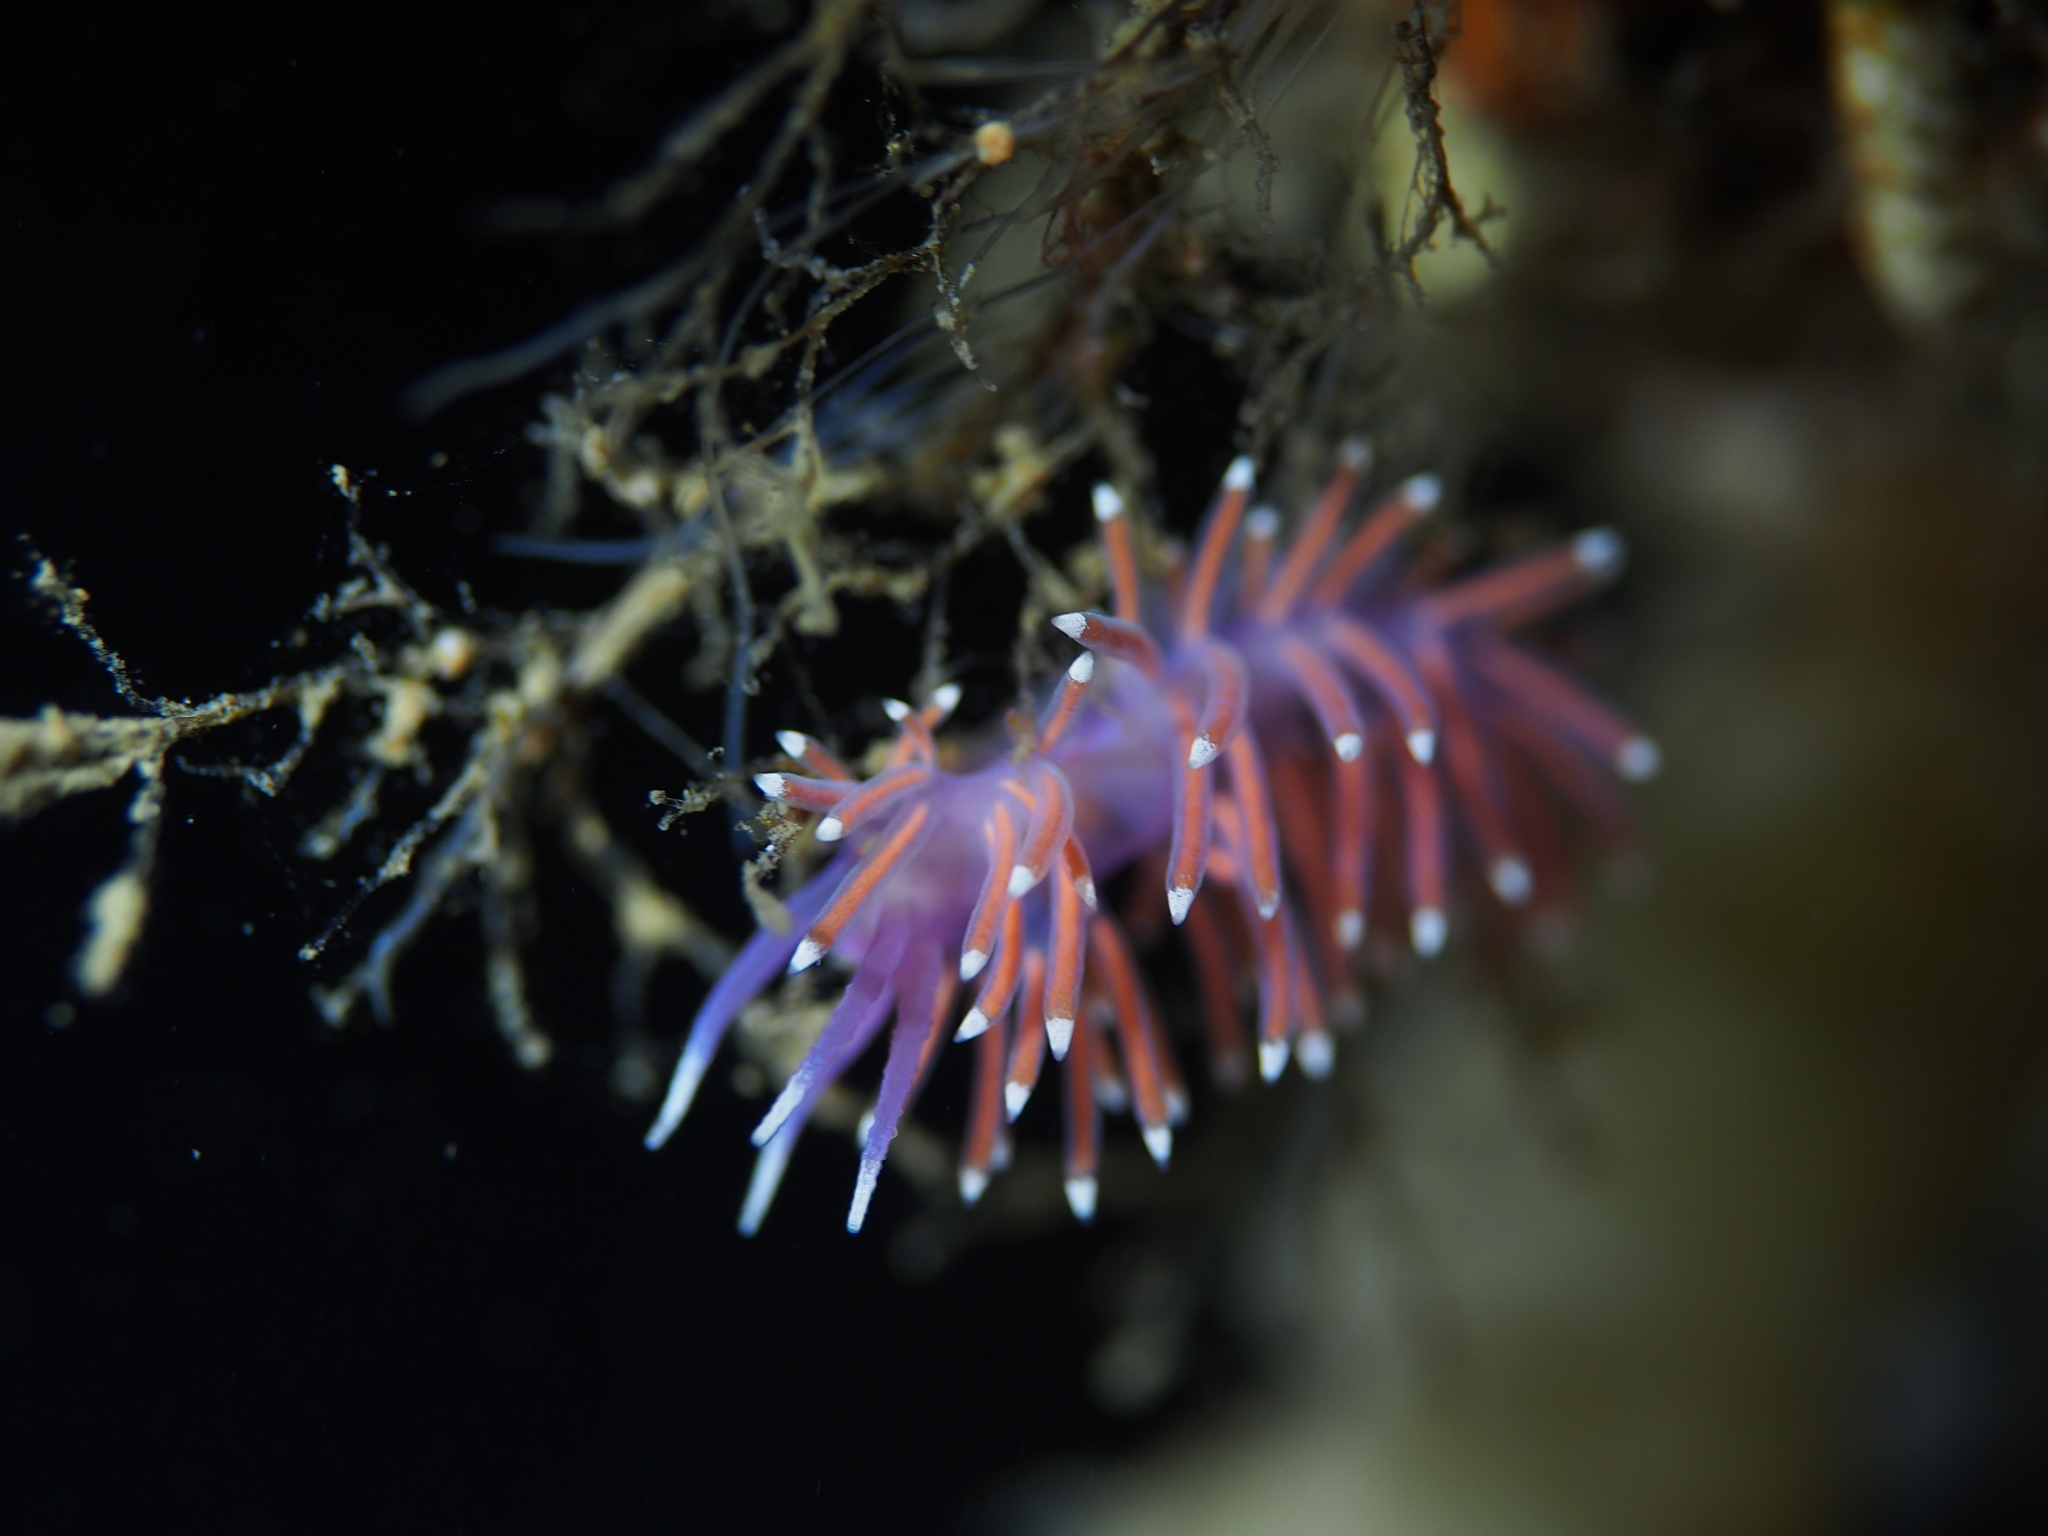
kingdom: Animalia
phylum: Mollusca
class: Gastropoda
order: Nudibranchia
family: Flabellinidae
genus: Edmundsella
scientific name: Edmundsella pedata
